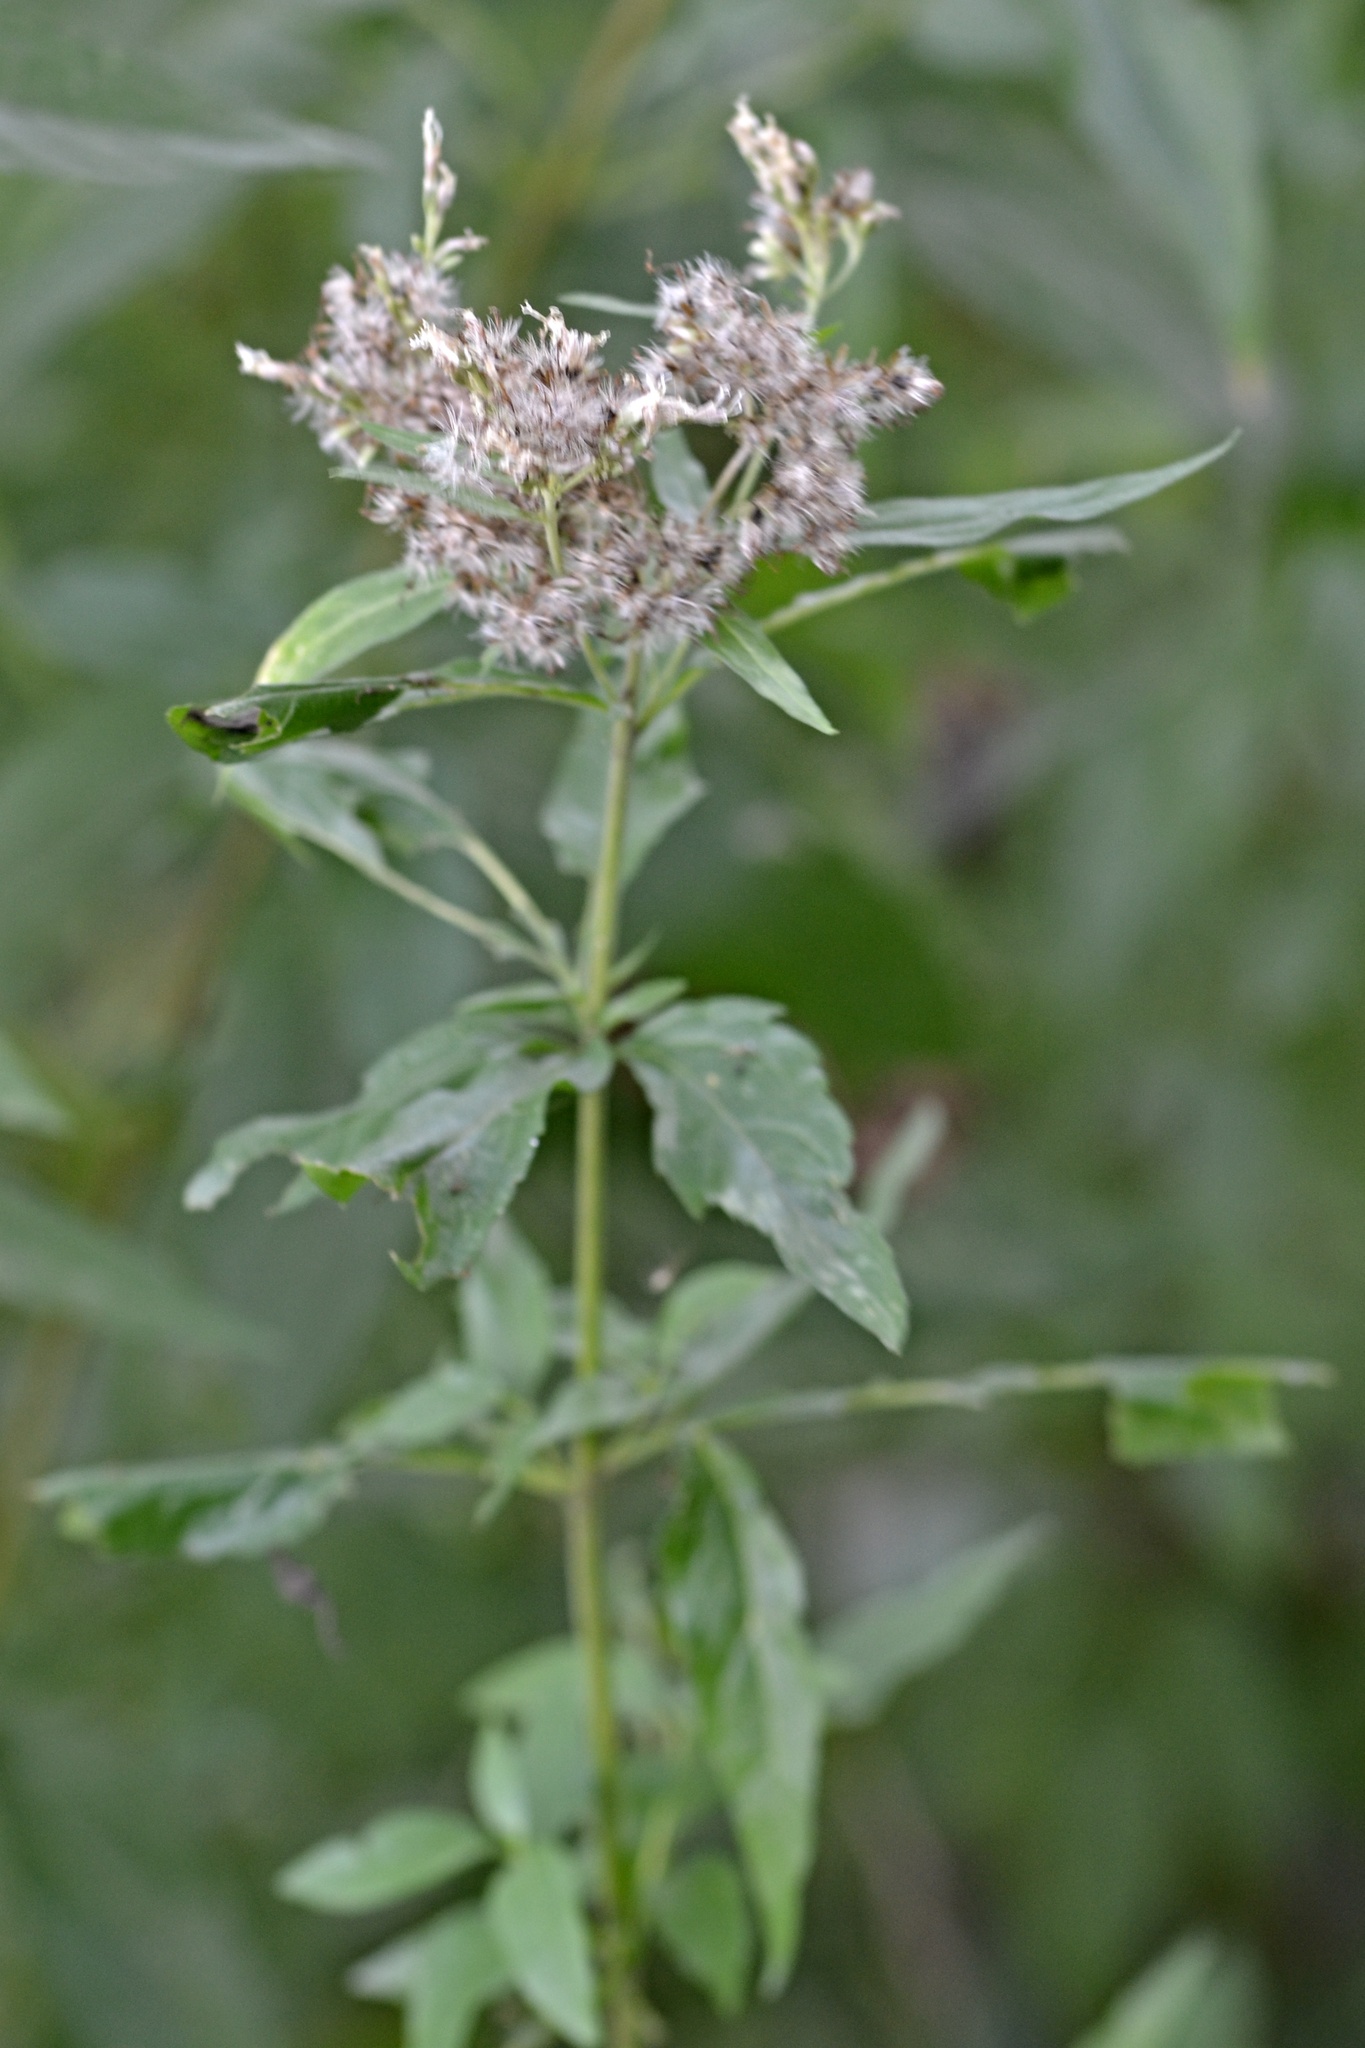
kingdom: Plantae
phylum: Tracheophyta
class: Magnoliopsida
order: Asterales
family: Asteraceae
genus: Eupatorium
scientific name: Eupatorium cannabinum
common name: Hemp-agrimony
